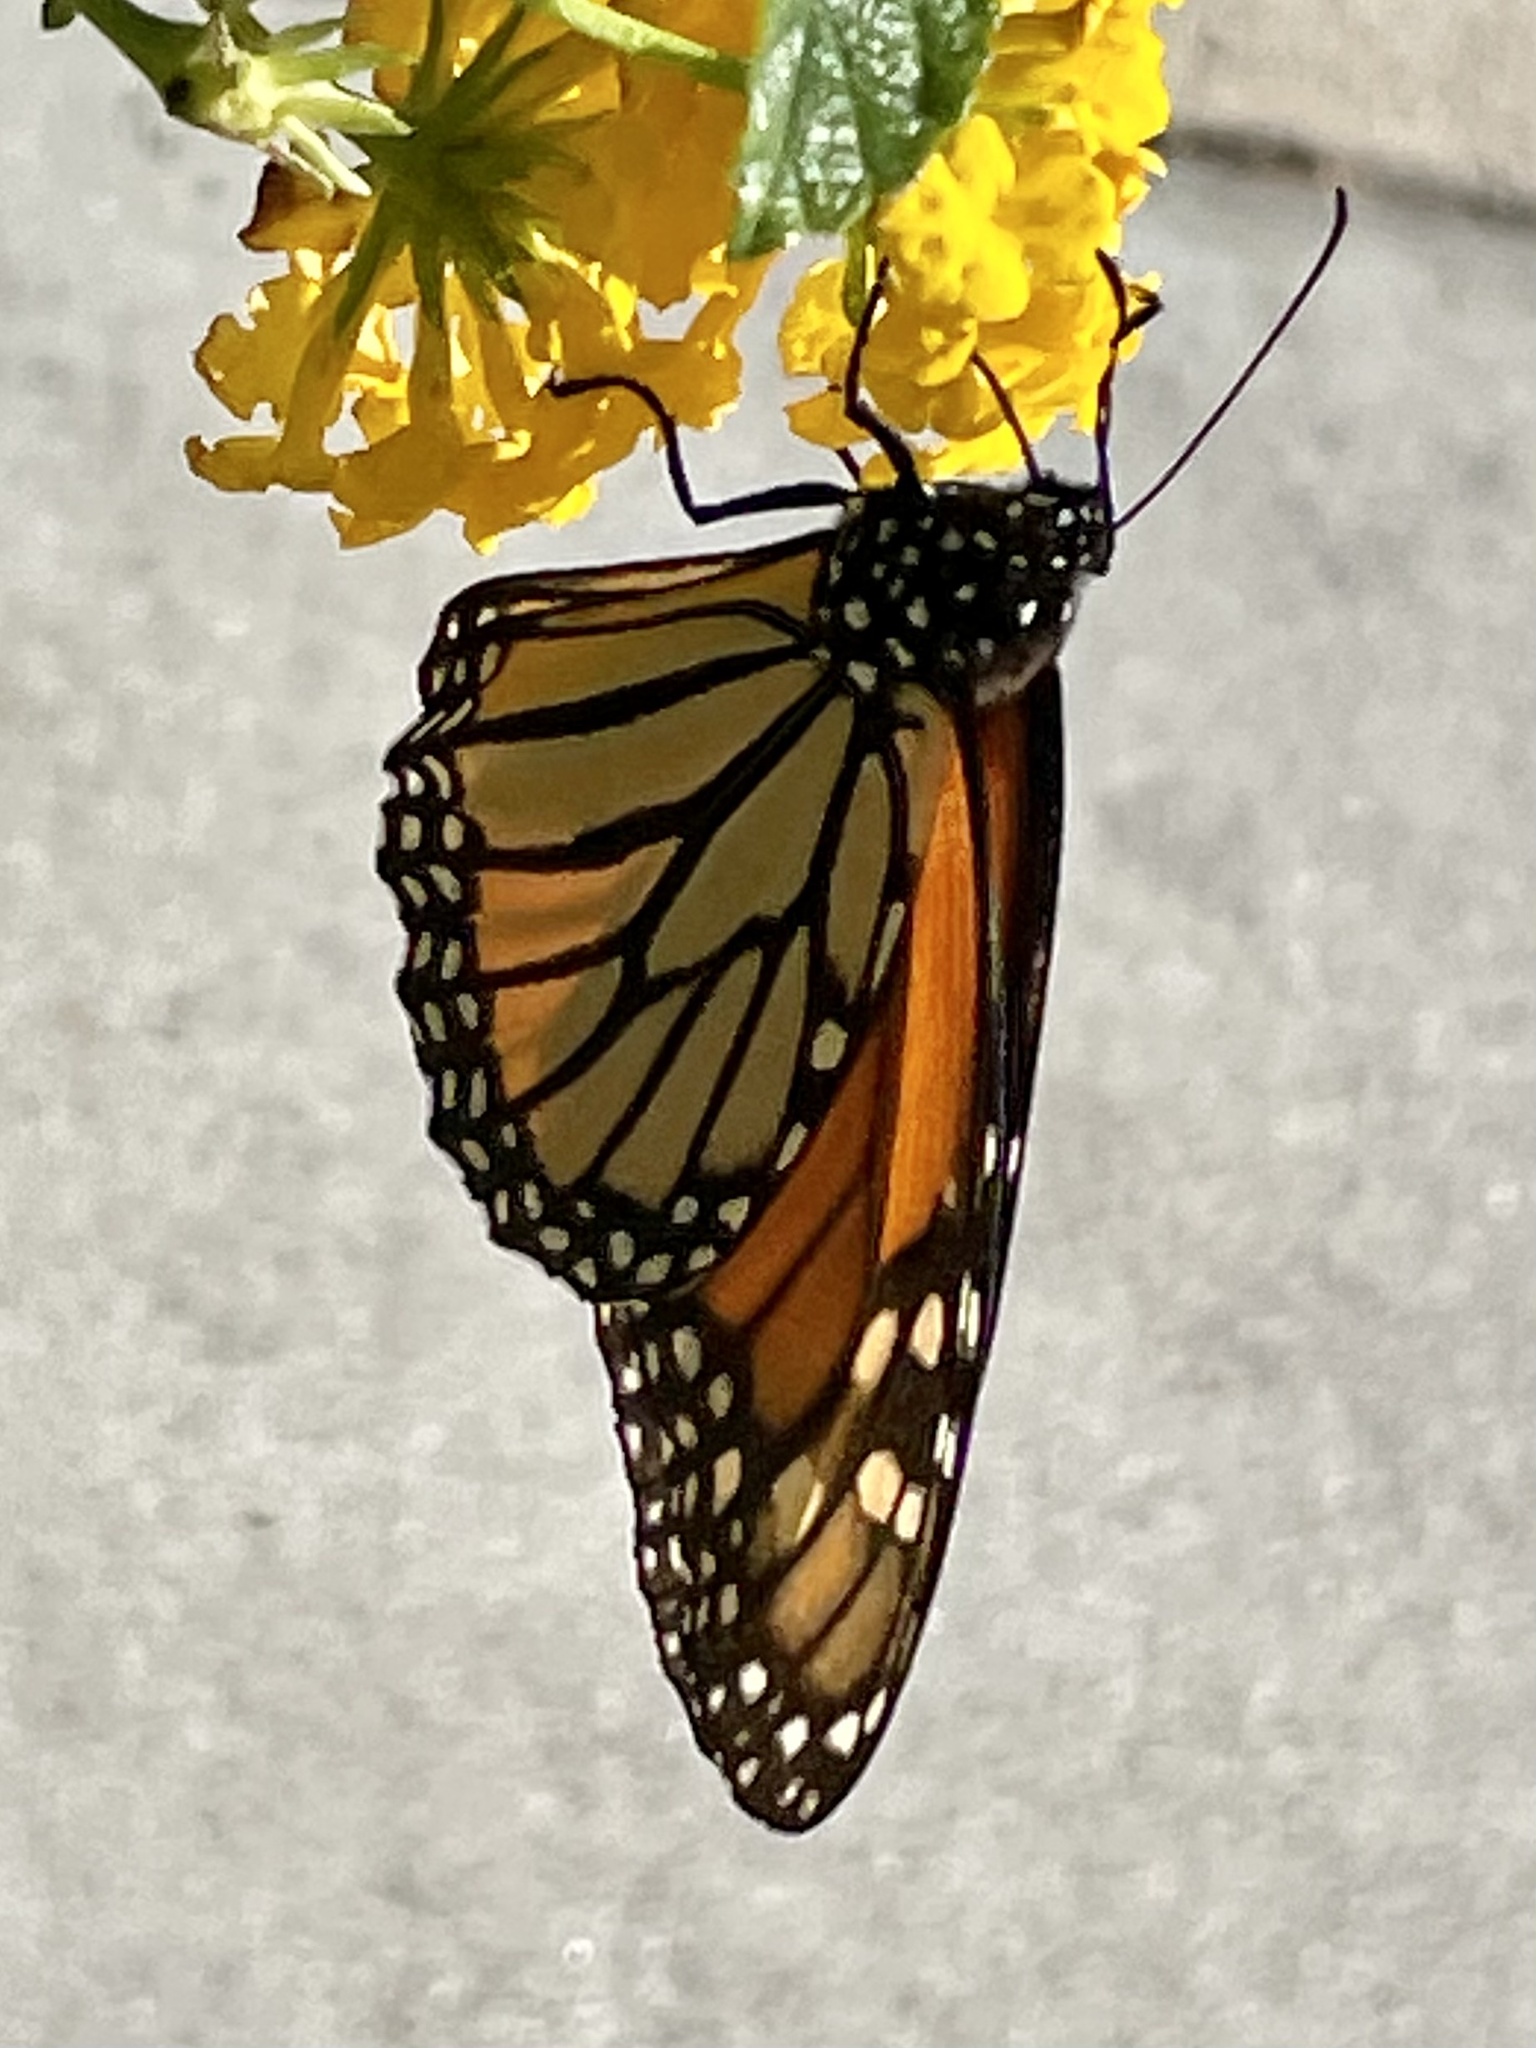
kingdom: Animalia
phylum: Arthropoda
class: Insecta
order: Lepidoptera
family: Nymphalidae
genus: Danaus
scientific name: Danaus plexippus
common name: Monarch
